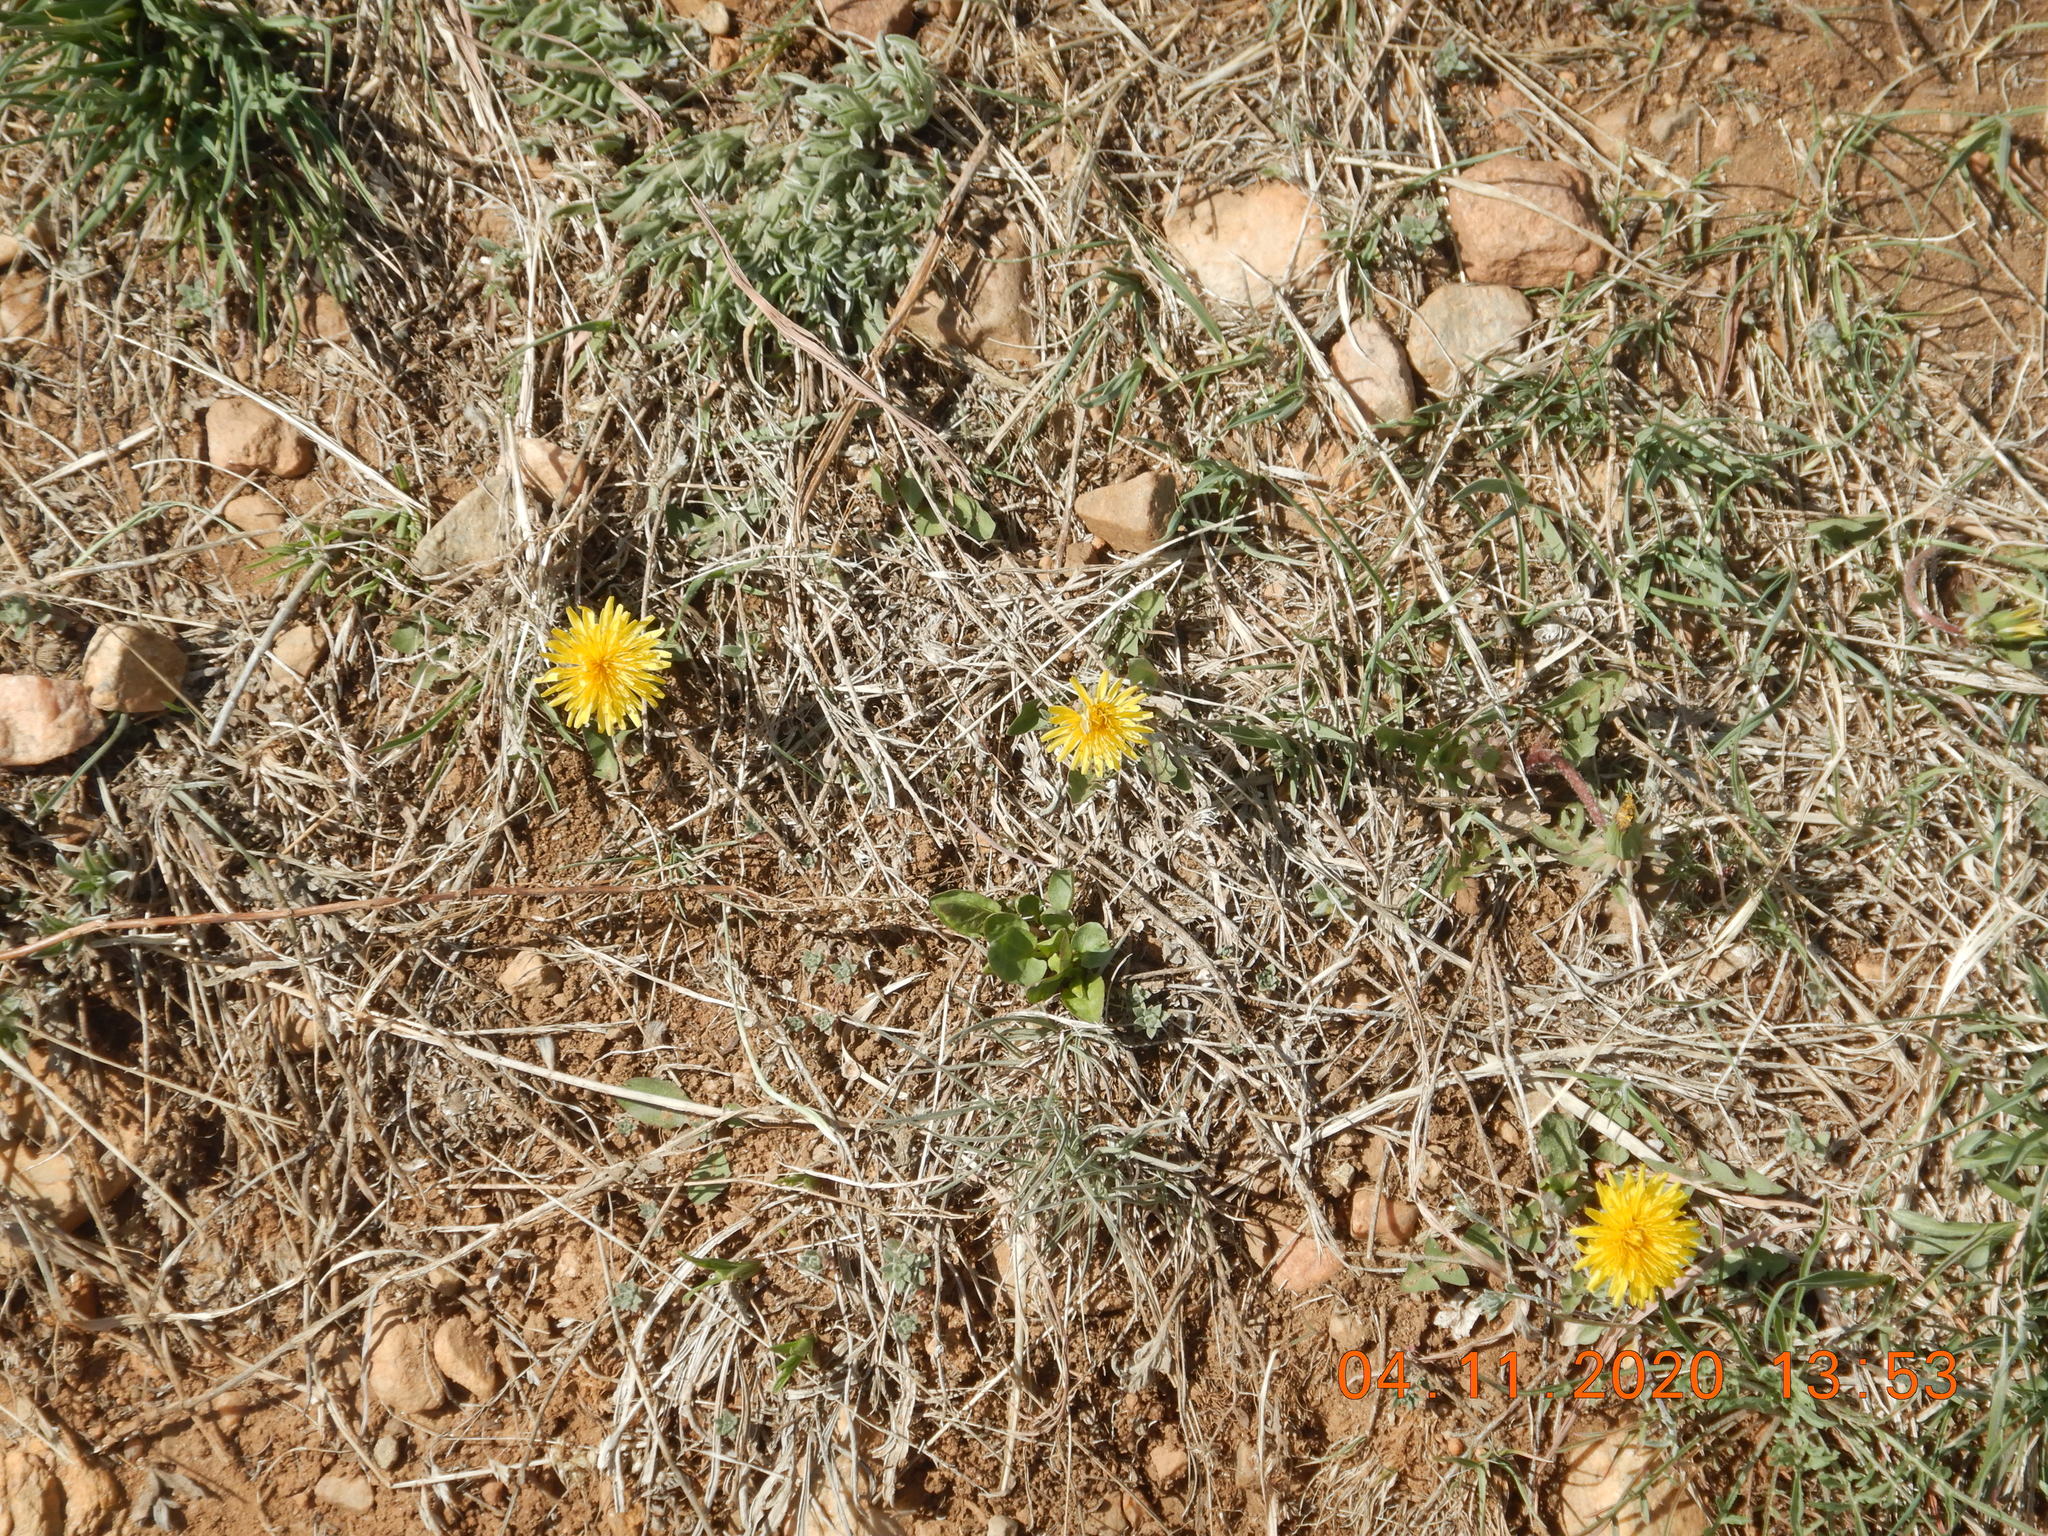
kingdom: Plantae
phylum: Tracheophyta
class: Magnoliopsida
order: Asterales
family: Asteraceae
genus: Taraxacum
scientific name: Taraxacum officinale
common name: Common dandelion
